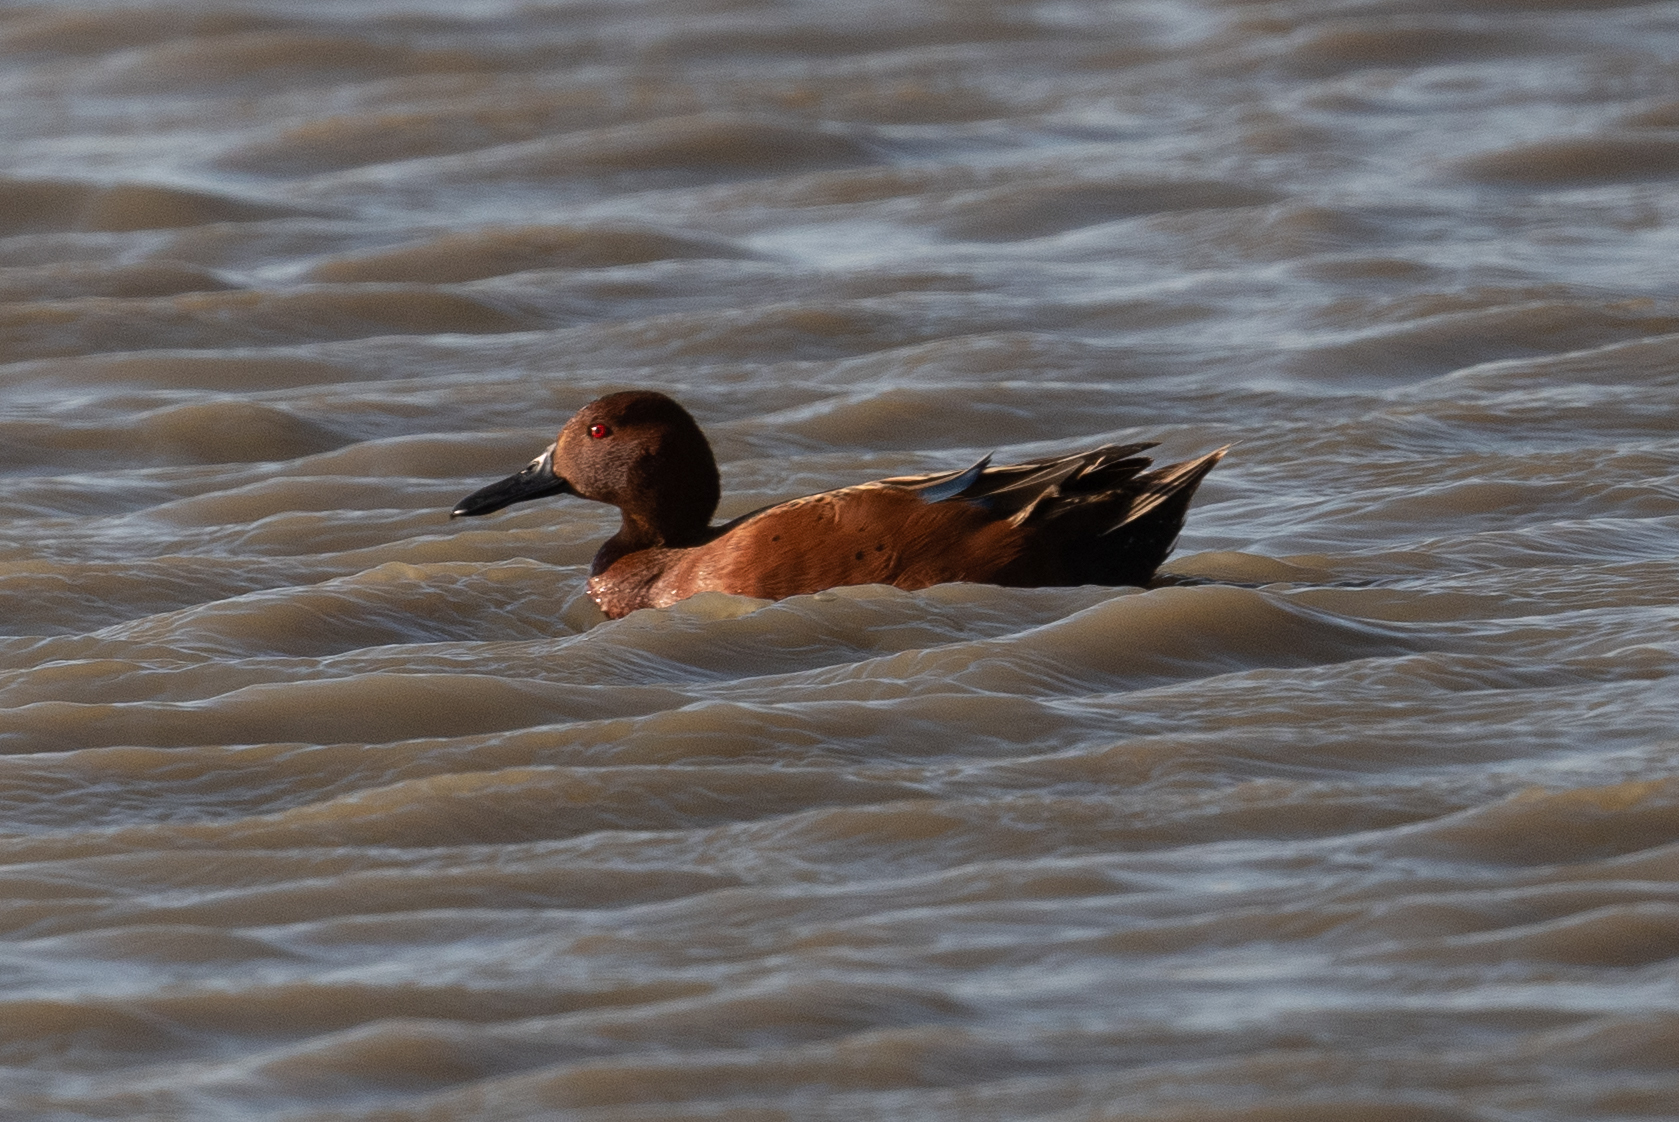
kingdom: Animalia
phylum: Chordata
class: Aves
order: Anseriformes
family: Anatidae
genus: Spatula
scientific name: Spatula cyanoptera
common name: Cinnamon teal
